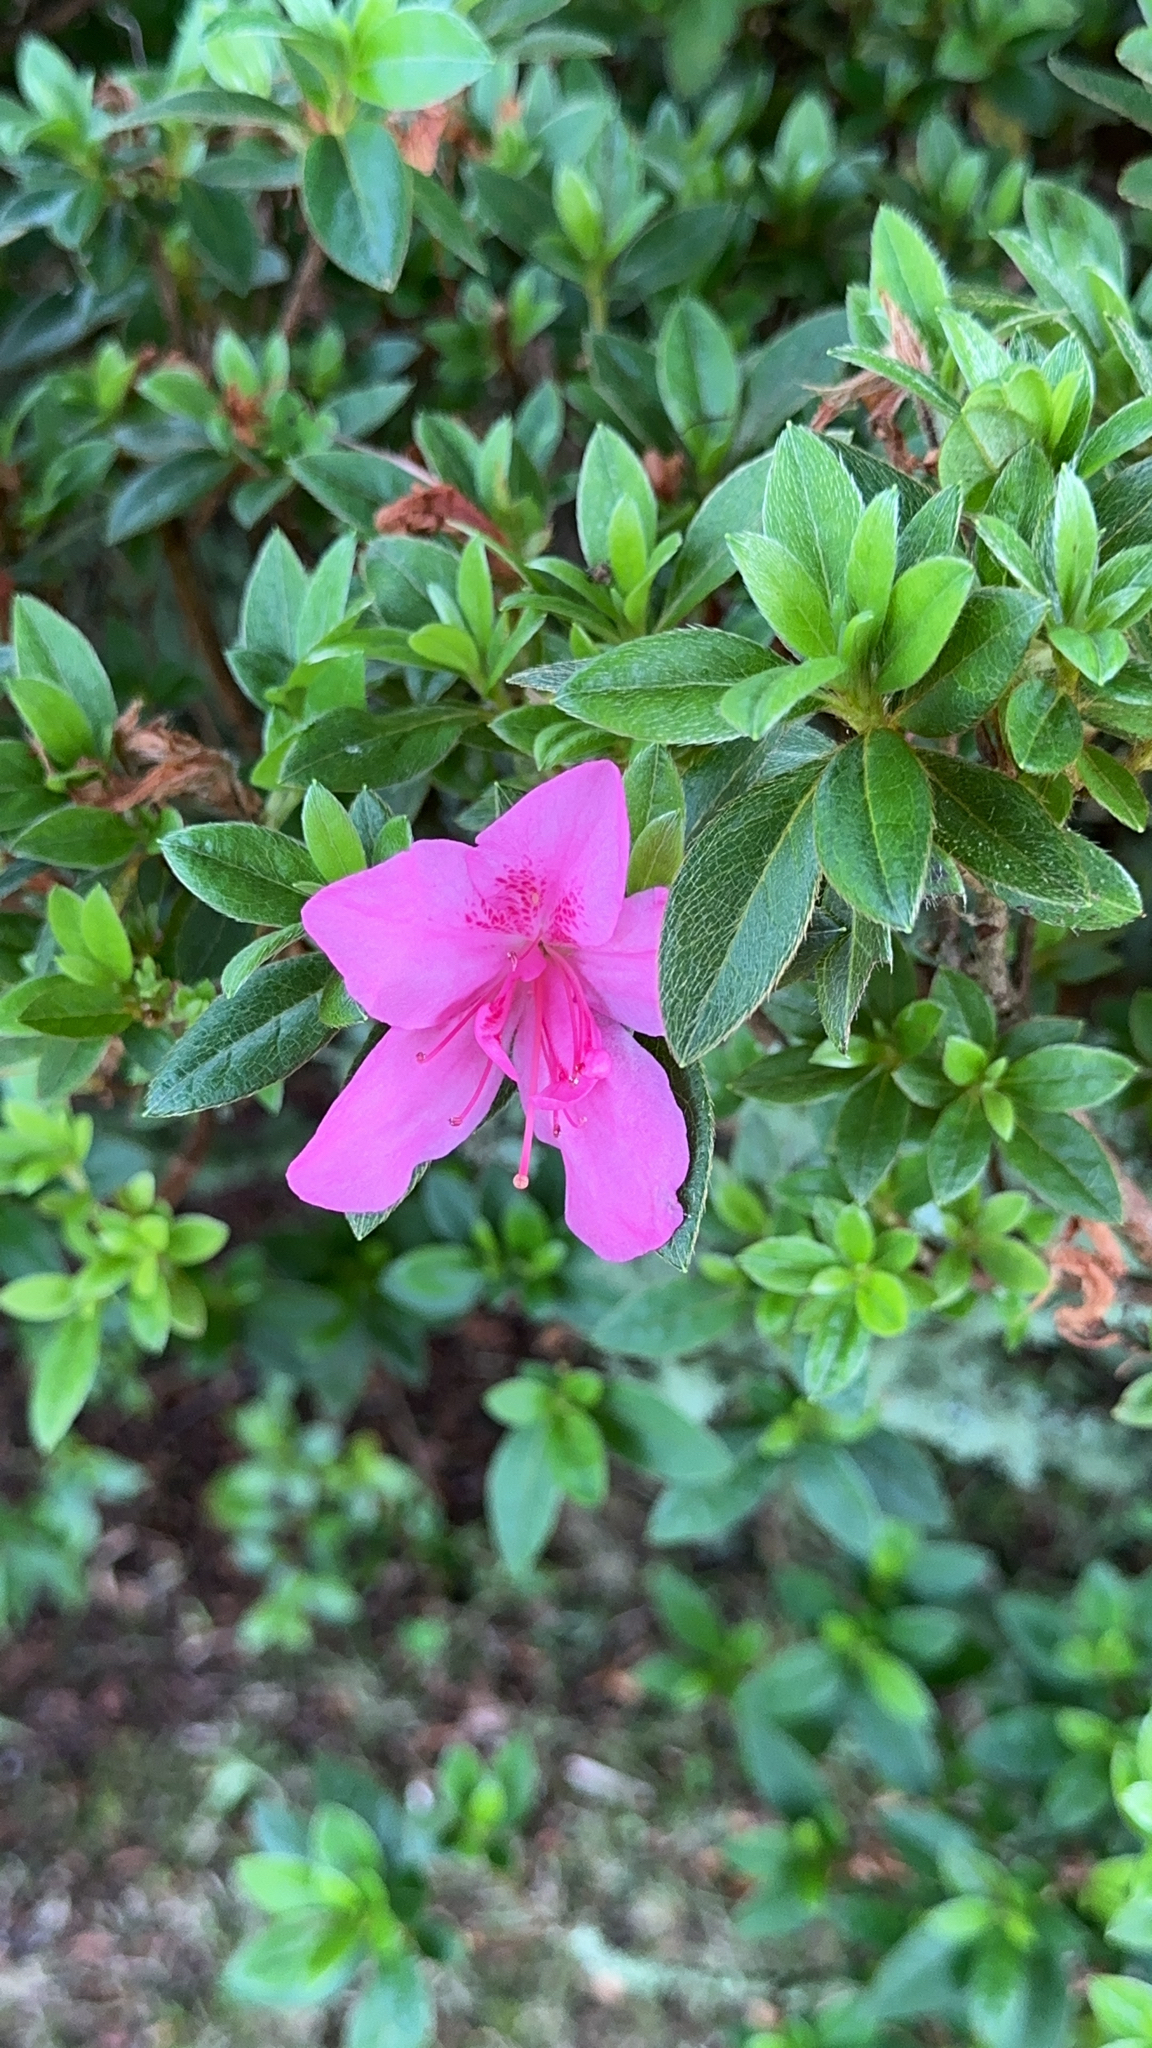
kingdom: Plantae
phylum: Tracheophyta
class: Magnoliopsida
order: Ericales
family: Ericaceae
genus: Rhododendron
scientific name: Rhododendron indicum
